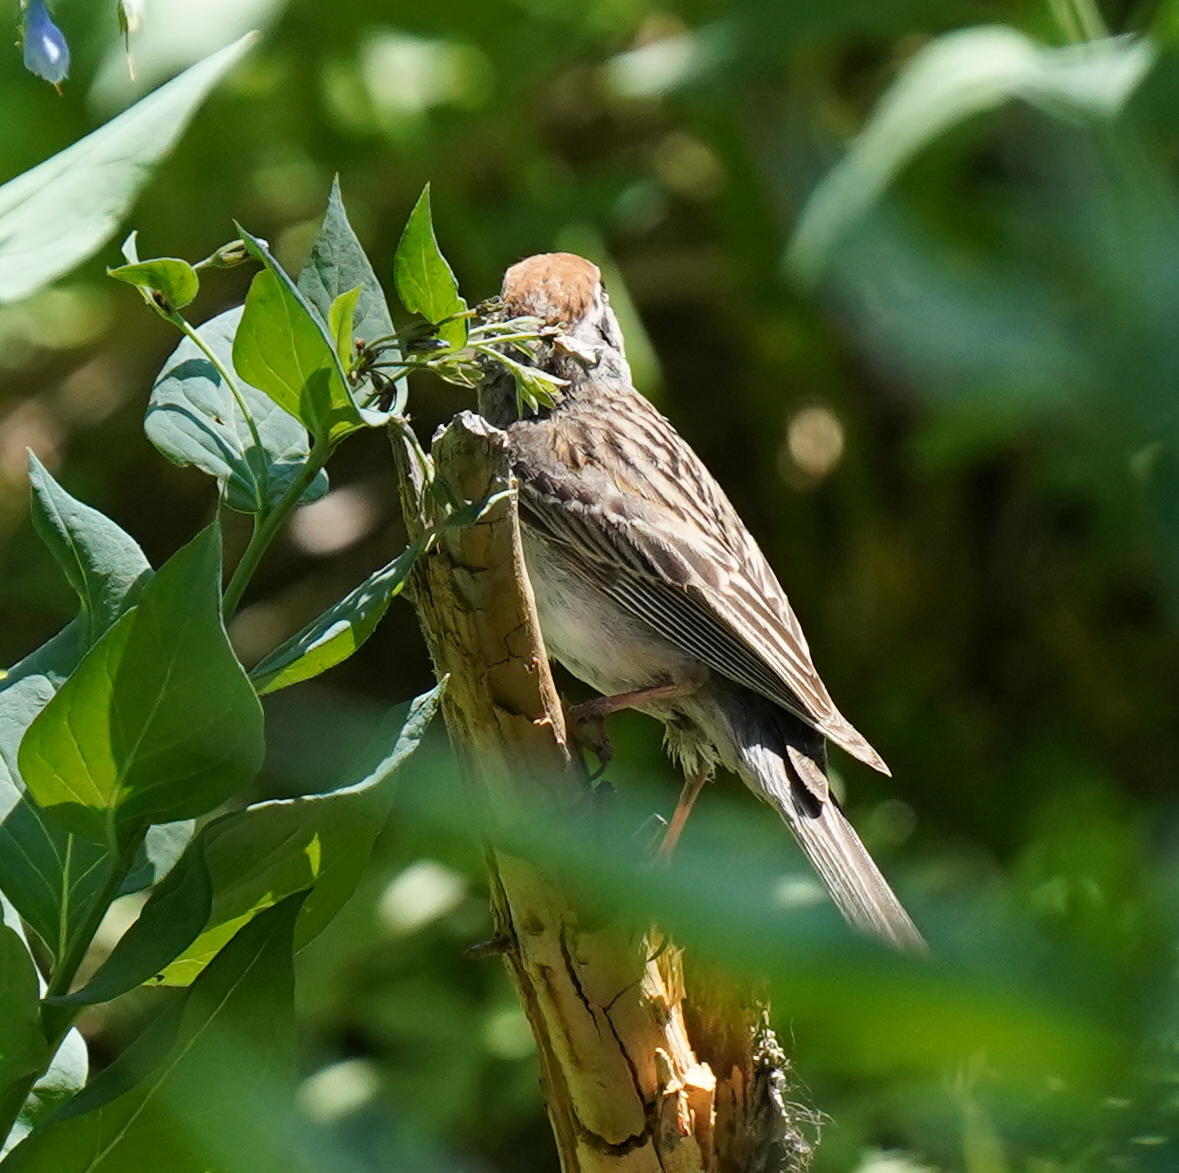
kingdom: Animalia
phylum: Chordata
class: Aves
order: Passeriformes
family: Passerellidae
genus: Spizella
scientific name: Spizella passerina
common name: Chipping sparrow
